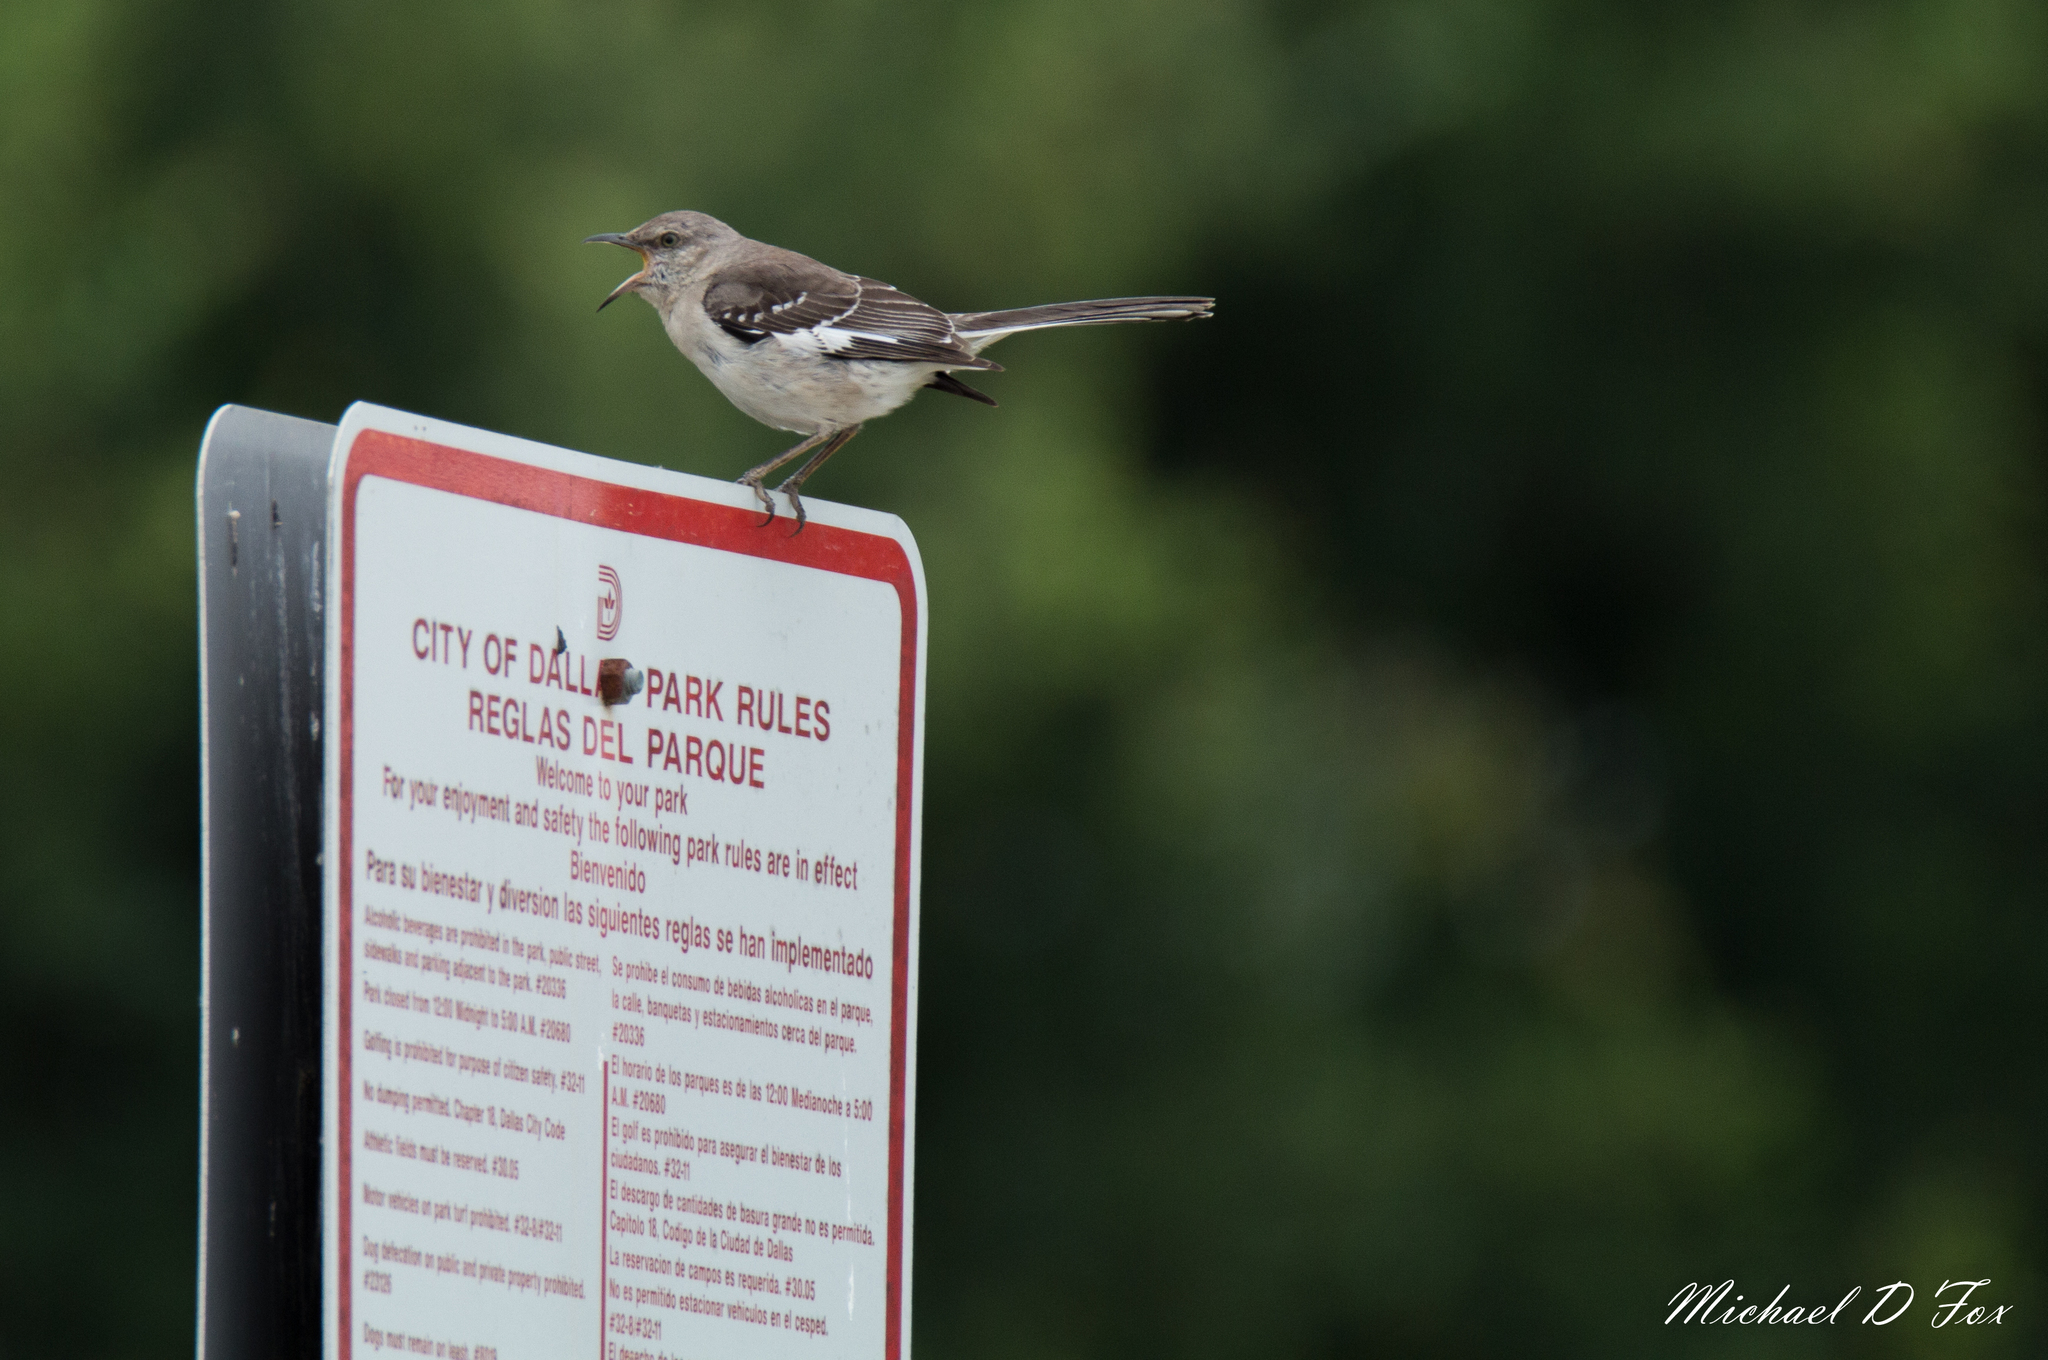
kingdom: Animalia
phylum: Chordata
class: Aves
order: Passeriformes
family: Mimidae
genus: Mimus
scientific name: Mimus polyglottos
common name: Northern mockingbird
